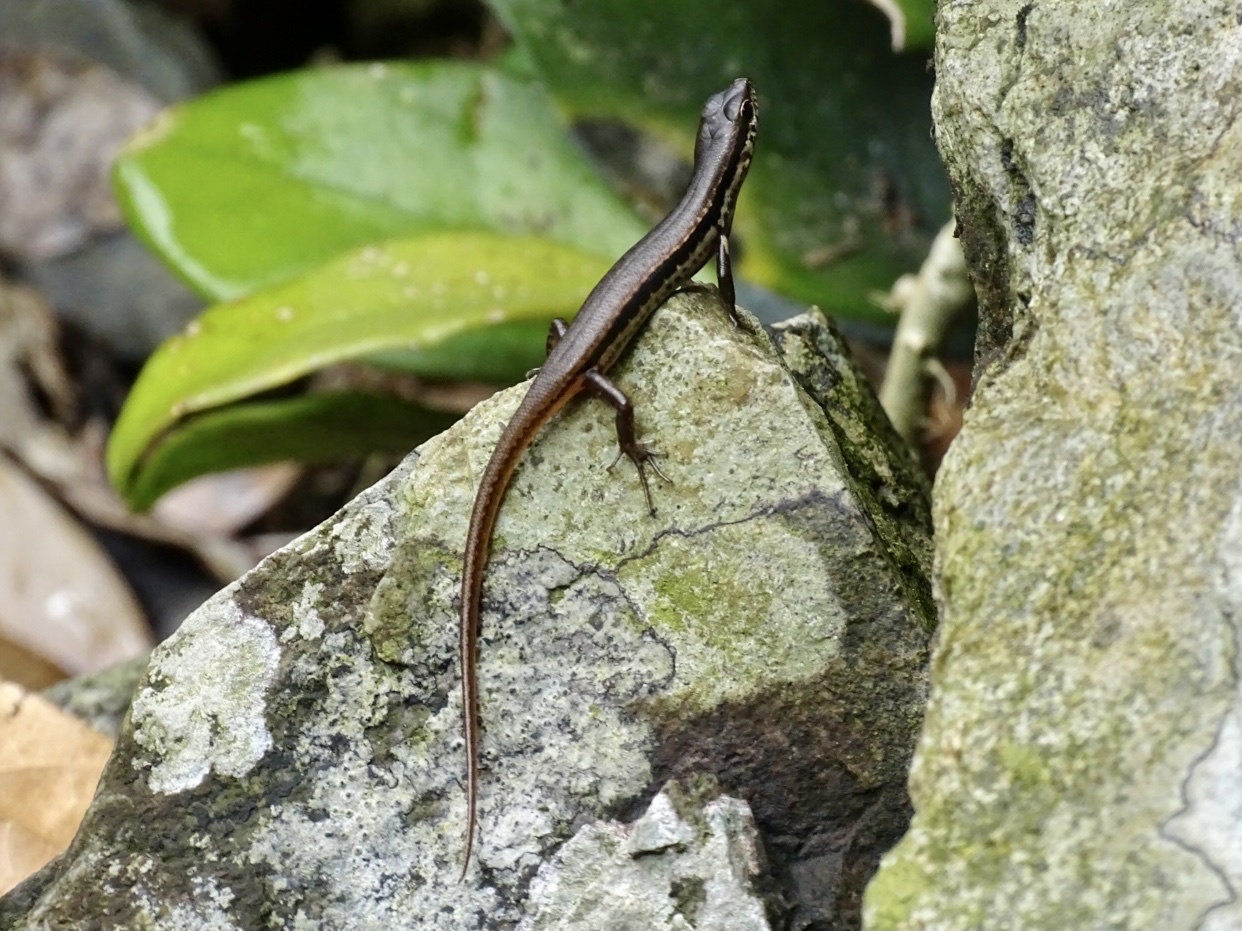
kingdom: Animalia
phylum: Chordata
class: Squamata
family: Scincidae
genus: Sphenomorphus
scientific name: Sphenomorphus indicus
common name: Himalayan forest skink
